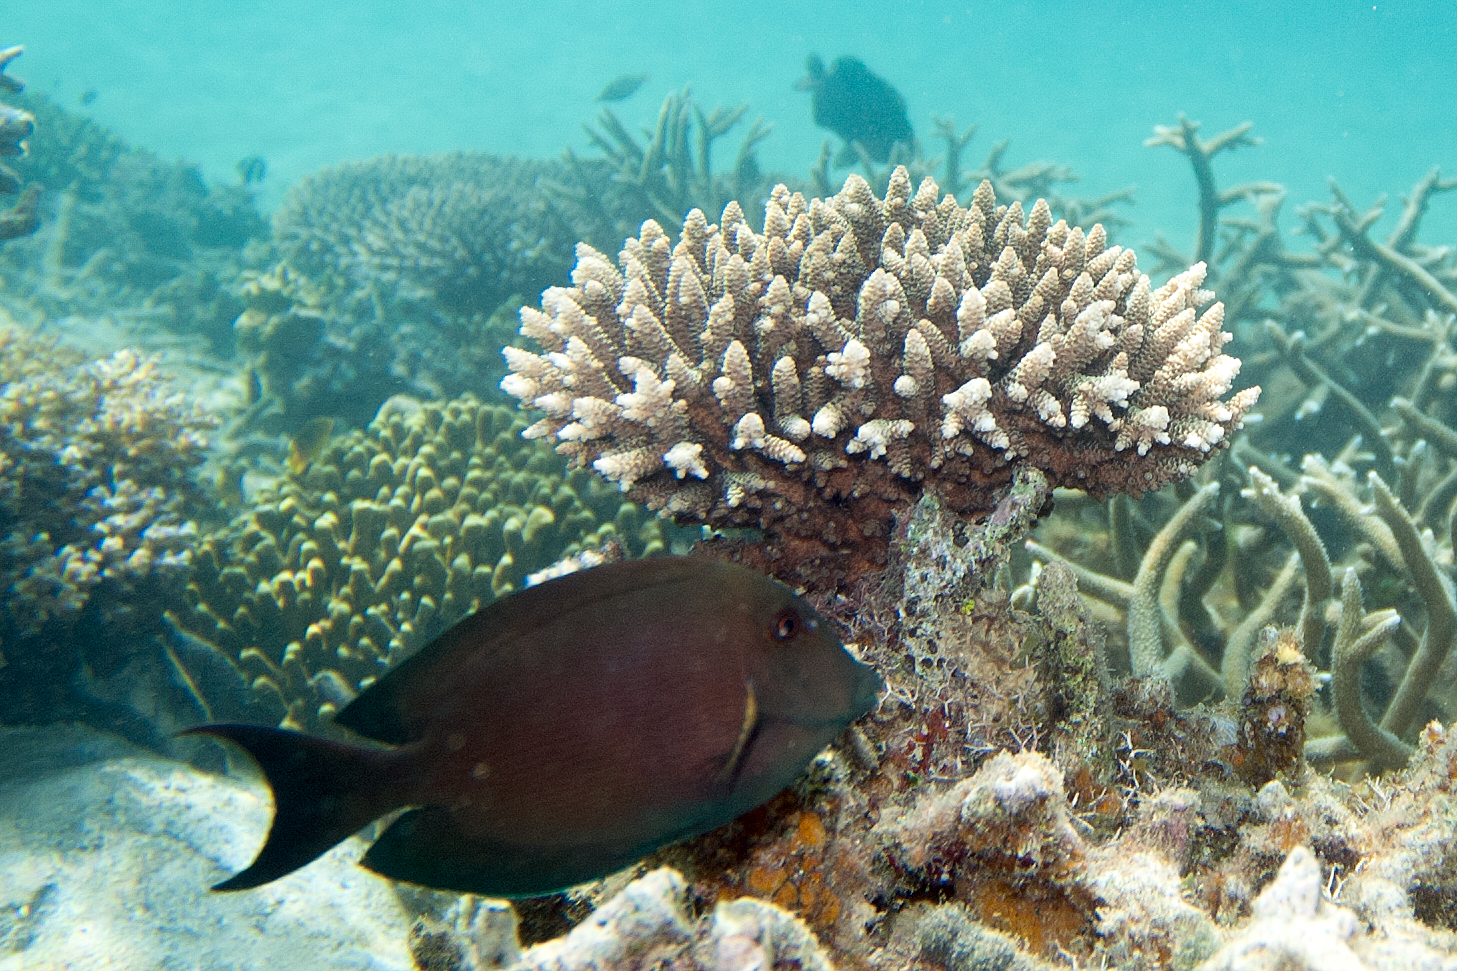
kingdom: Animalia
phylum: Chordata
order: Perciformes
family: Acanthuridae
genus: Ctenochaetus
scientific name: Ctenochaetus striatus
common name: Bristle-toothed surgeonfish
